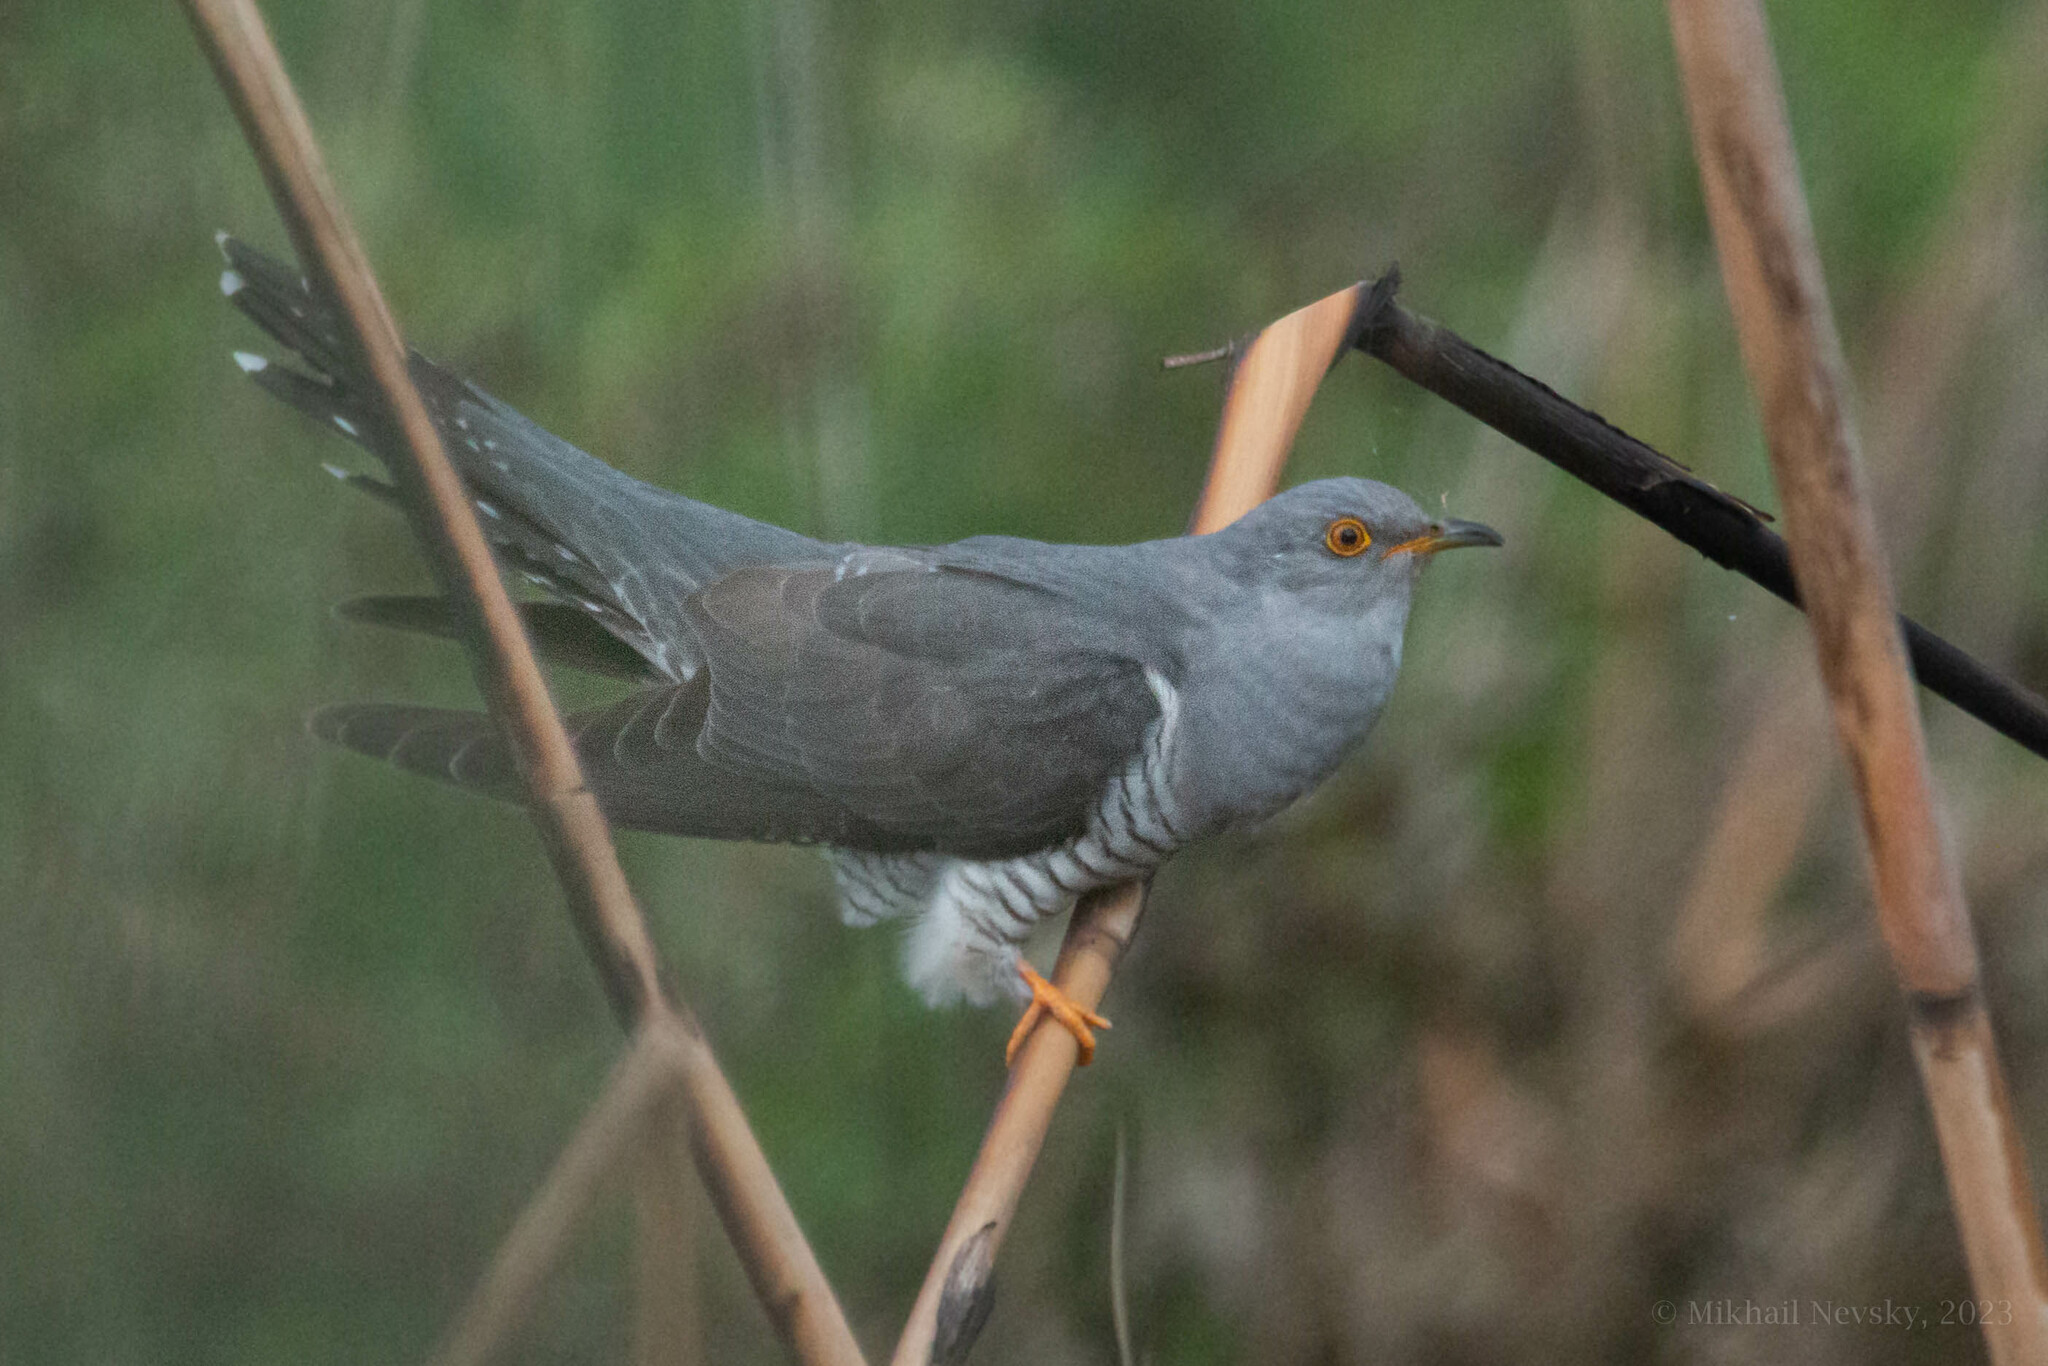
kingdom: Animalia
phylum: Chordata
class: Aves
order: Cuculiformes
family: Cuculidae
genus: Cuculus
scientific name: Cuculus canorus
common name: Common cuckoo
